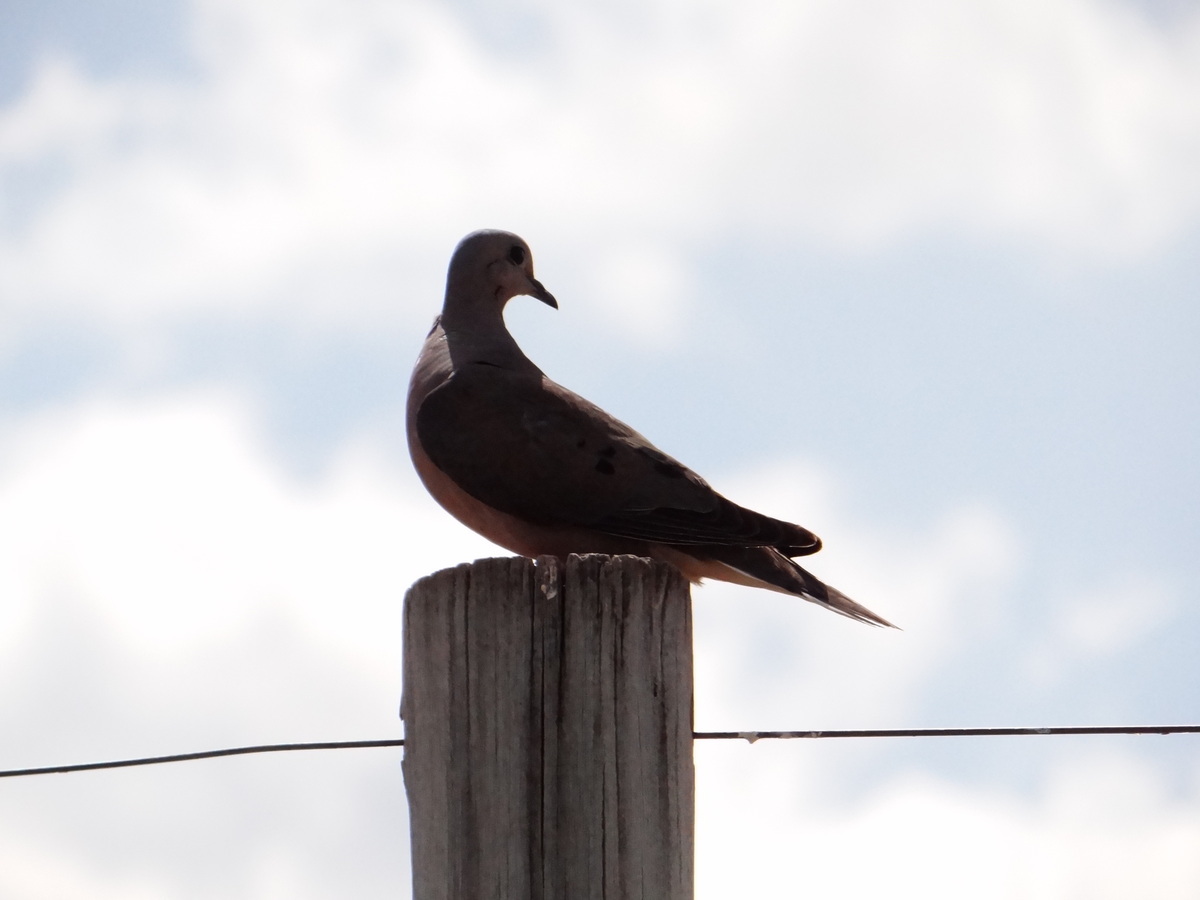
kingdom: Animalia
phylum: Chordata
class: Aves
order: Columbiformes
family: Columbidae
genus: Zenaida
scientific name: Zenaida auriculata
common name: Eared dove
